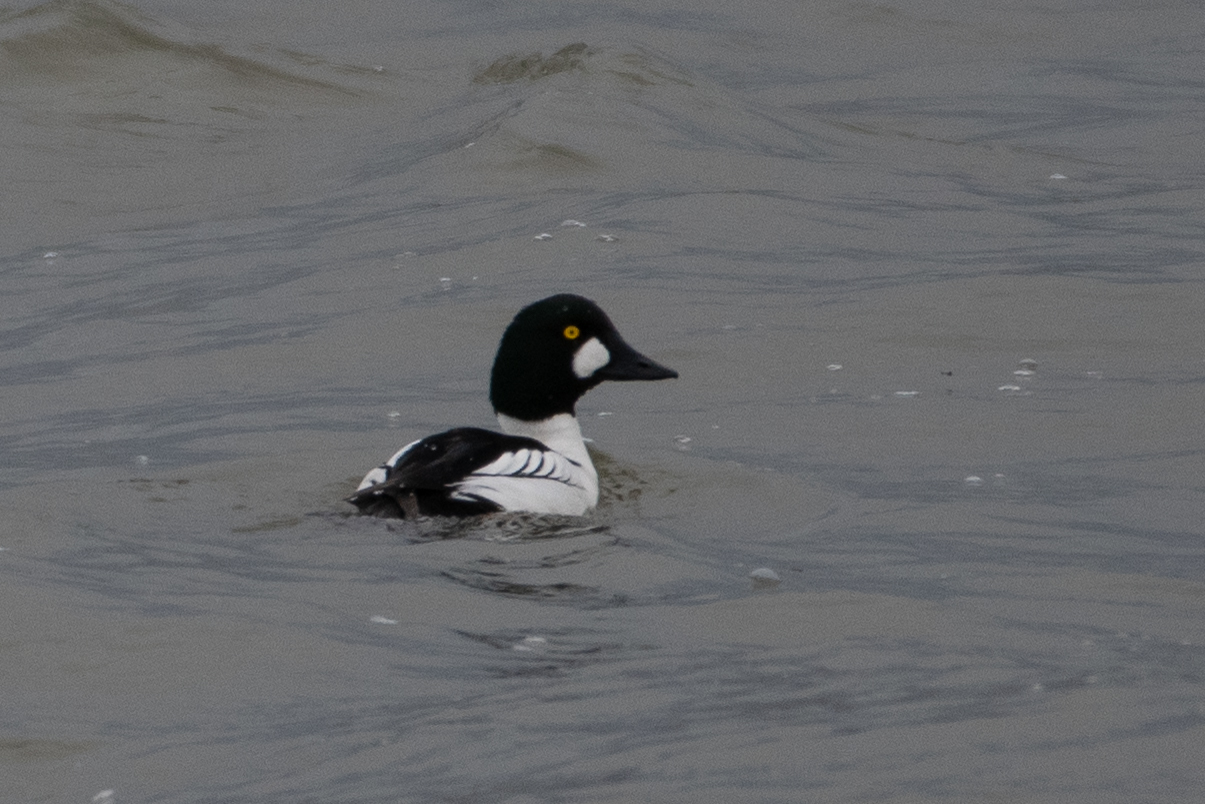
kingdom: Animalia
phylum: Chordata
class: Aves
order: Anseriformes
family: Anatidae
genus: Bucephala
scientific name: Bucephala clangula
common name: Common goldeneye
